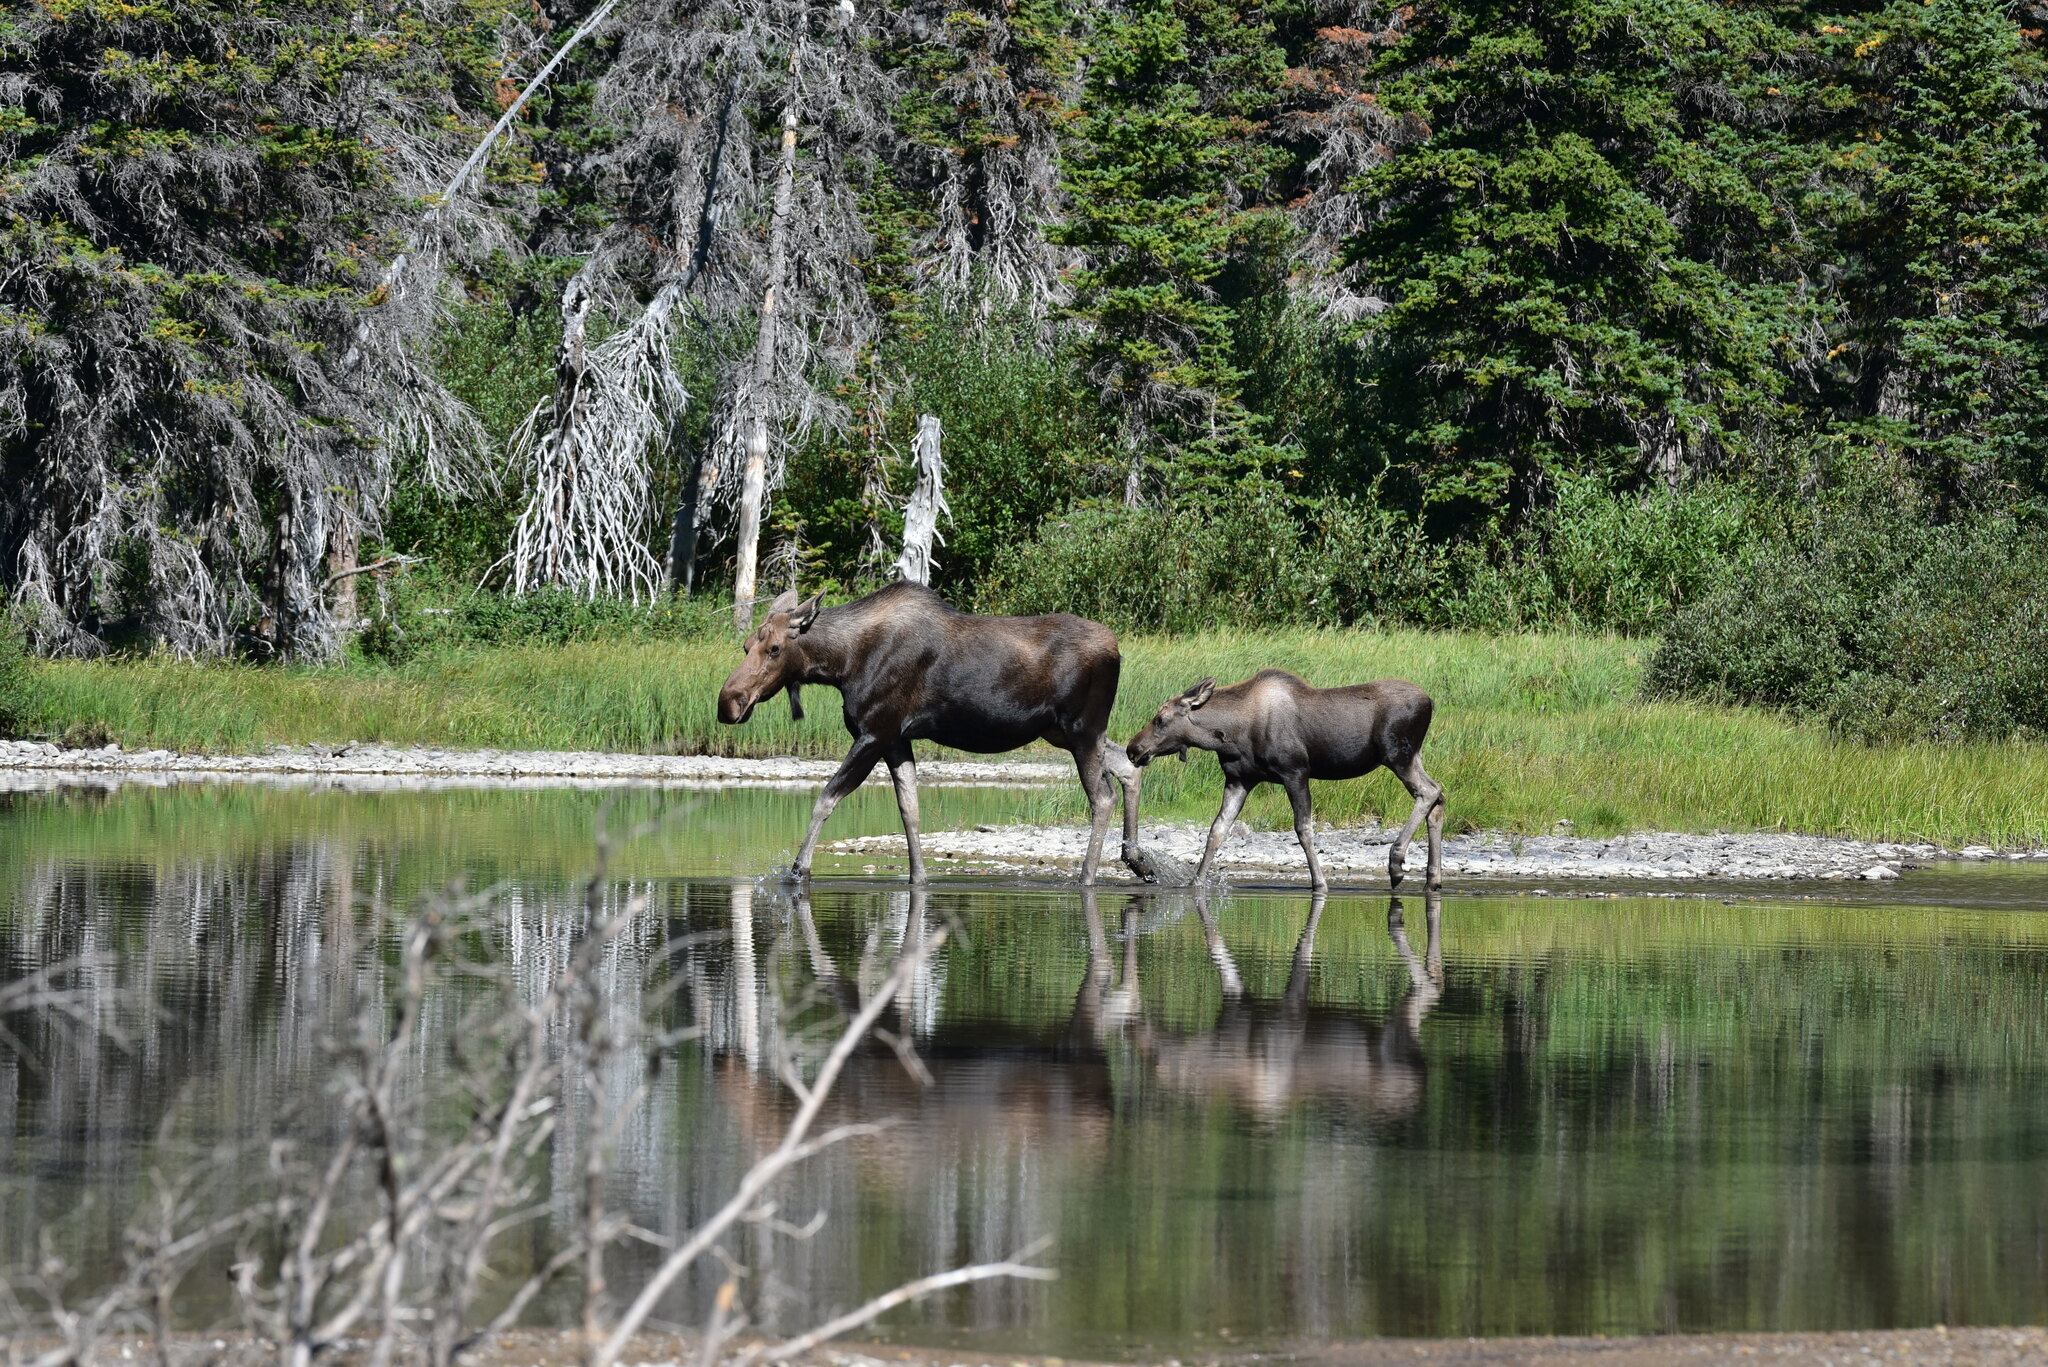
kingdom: Animalia
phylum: Chordata
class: Mammalia
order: Artiodactyla
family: Cervidae
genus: Alces
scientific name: Alces americanus
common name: Moose
